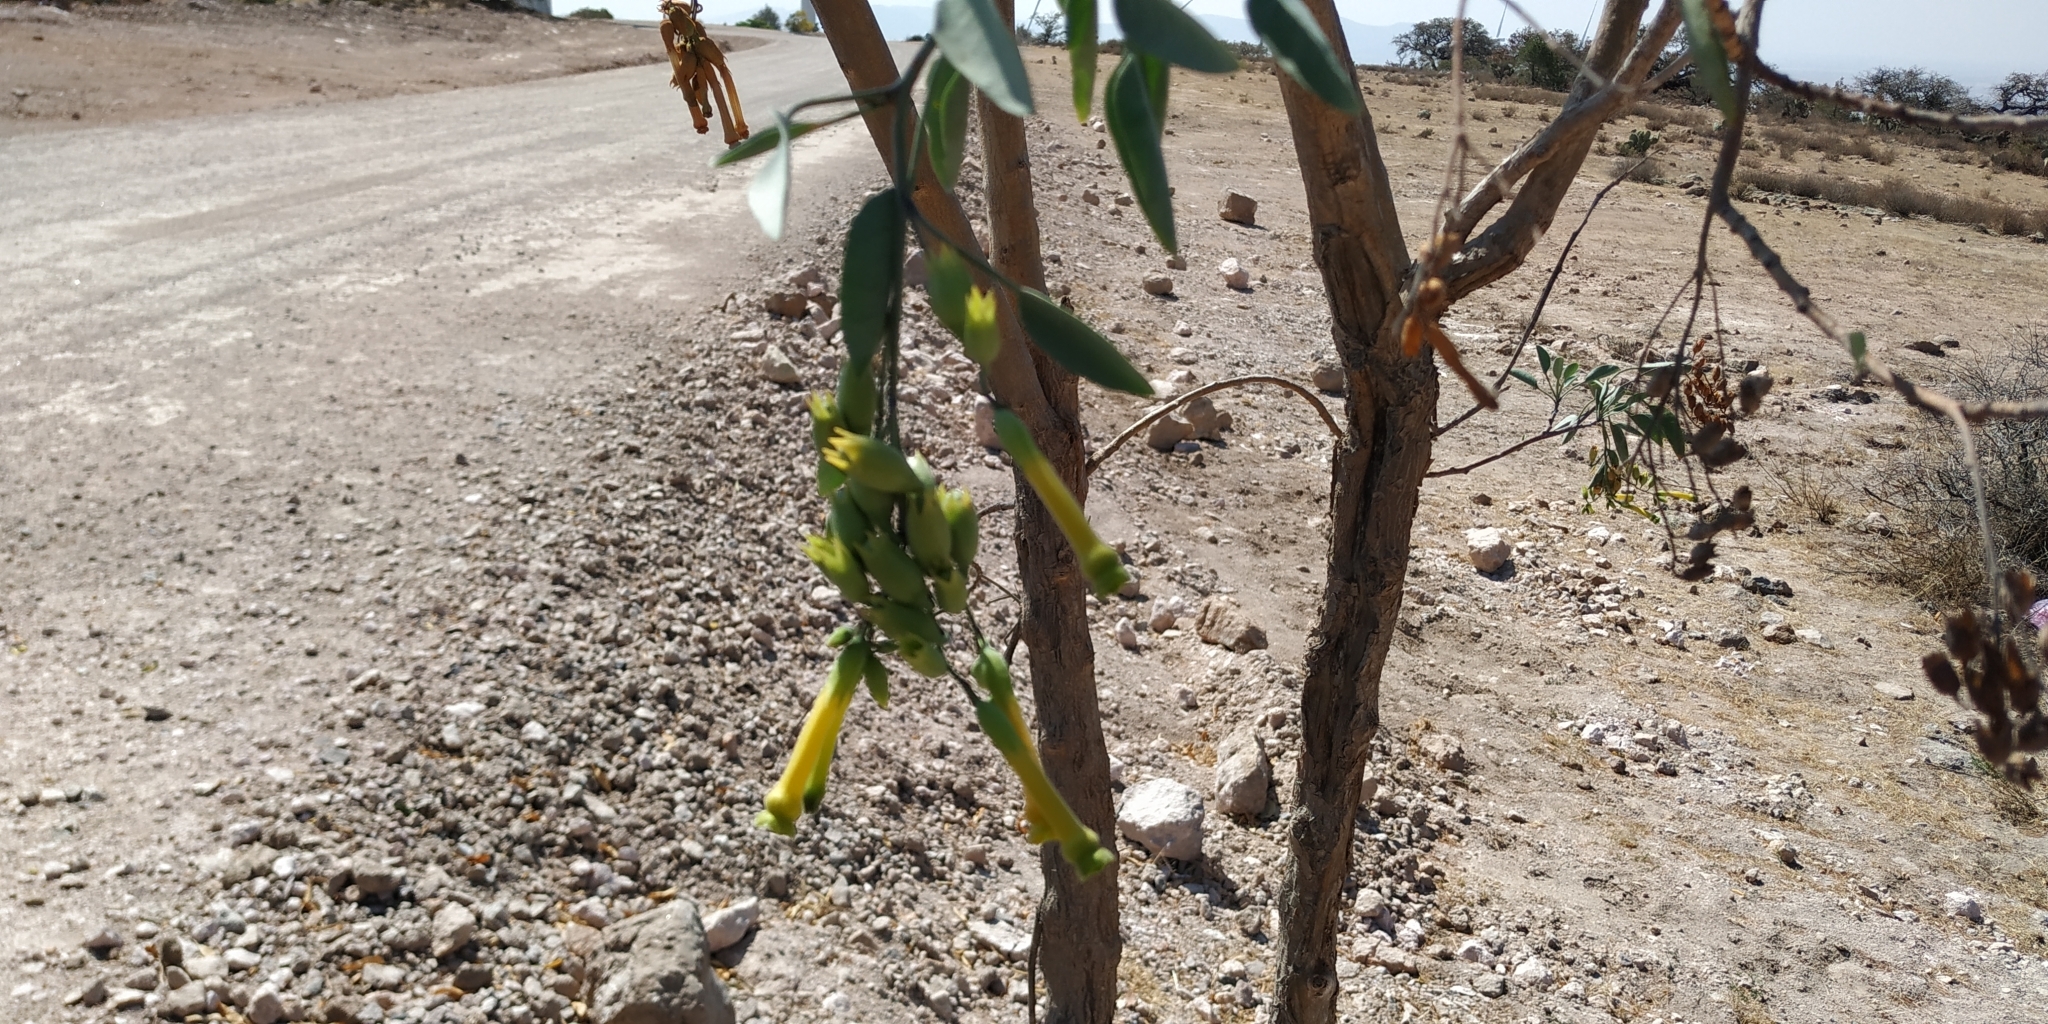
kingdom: Plantae
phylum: Tracheophyta
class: Magnoliopsida
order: Solanales
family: Solanaceae
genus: Nicotiana
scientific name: Nicotiana glauca
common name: Tree tobacco
